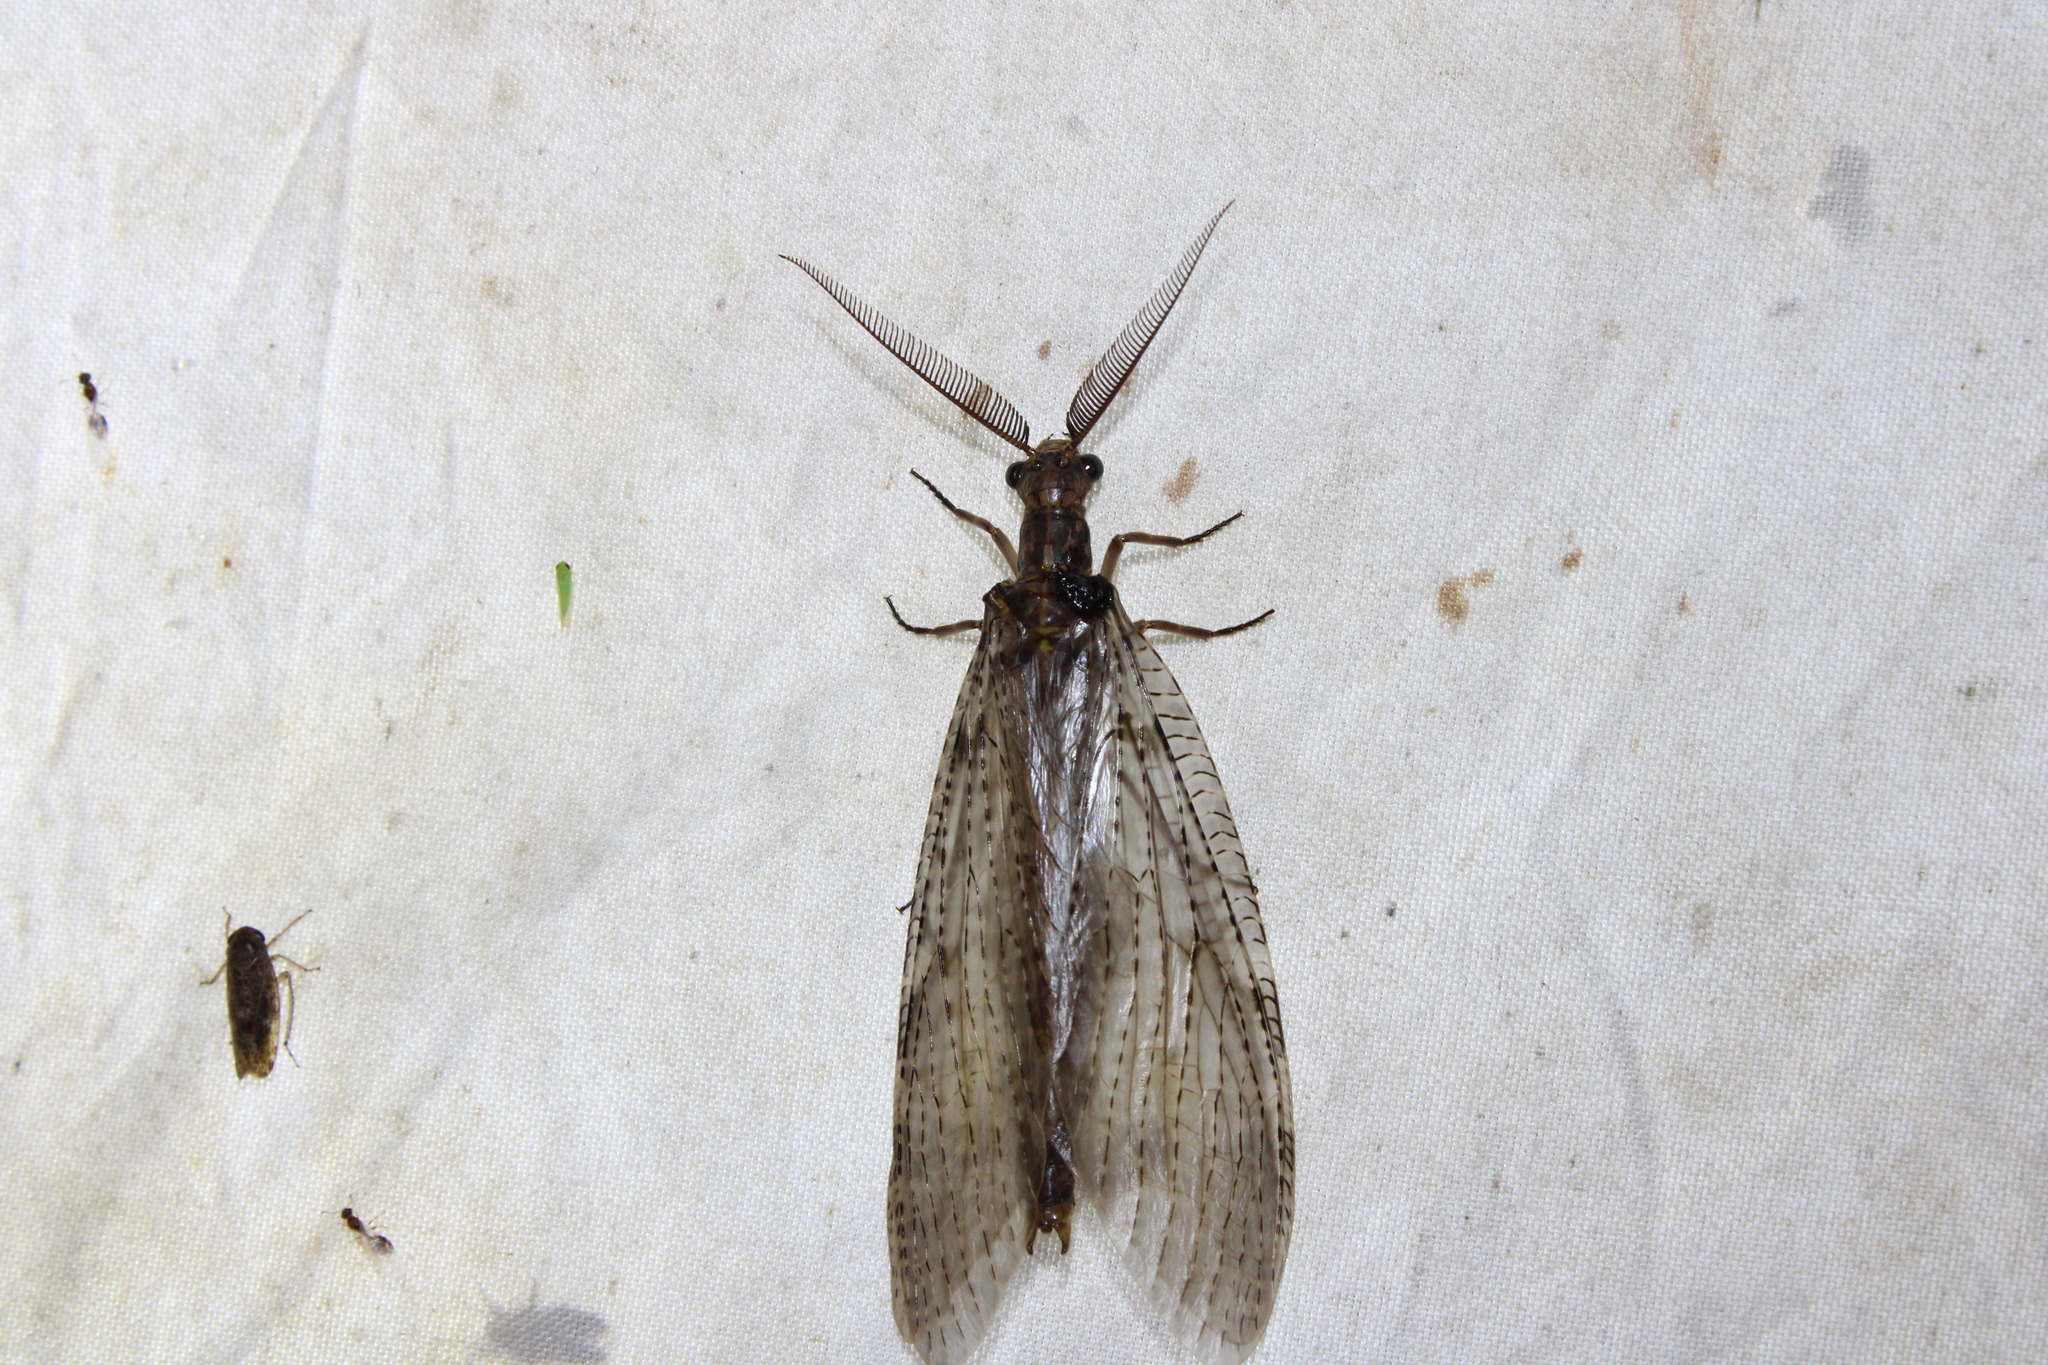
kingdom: Animalia
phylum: Arthropoda
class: Insecta
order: Megaloptera
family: Corydalidae
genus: Chauliodes
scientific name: Chauliodes pectinicornis
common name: Summer fishfly
